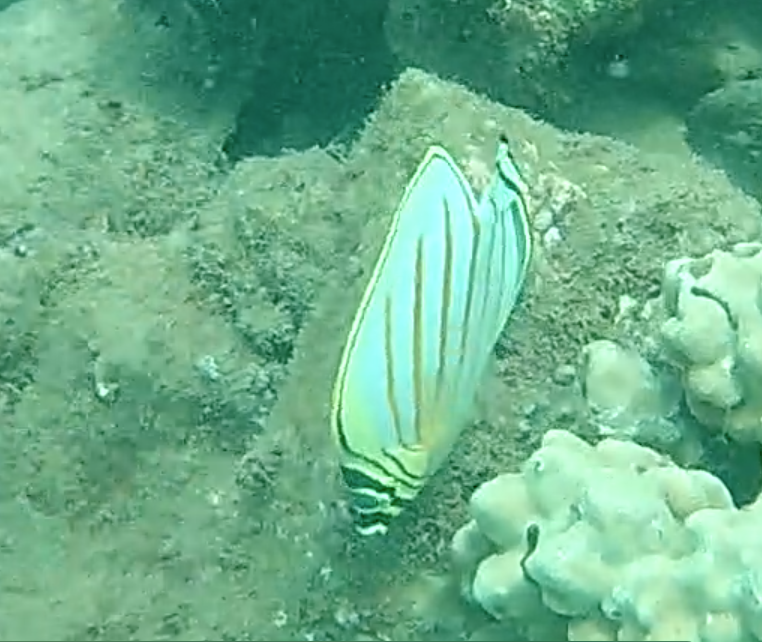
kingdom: Animalia
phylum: Chordata
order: Perciformes
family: Chaetodontidae
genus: Chaetodon
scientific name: Chaetodon ornatissimus
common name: Ornate butterflyfish
